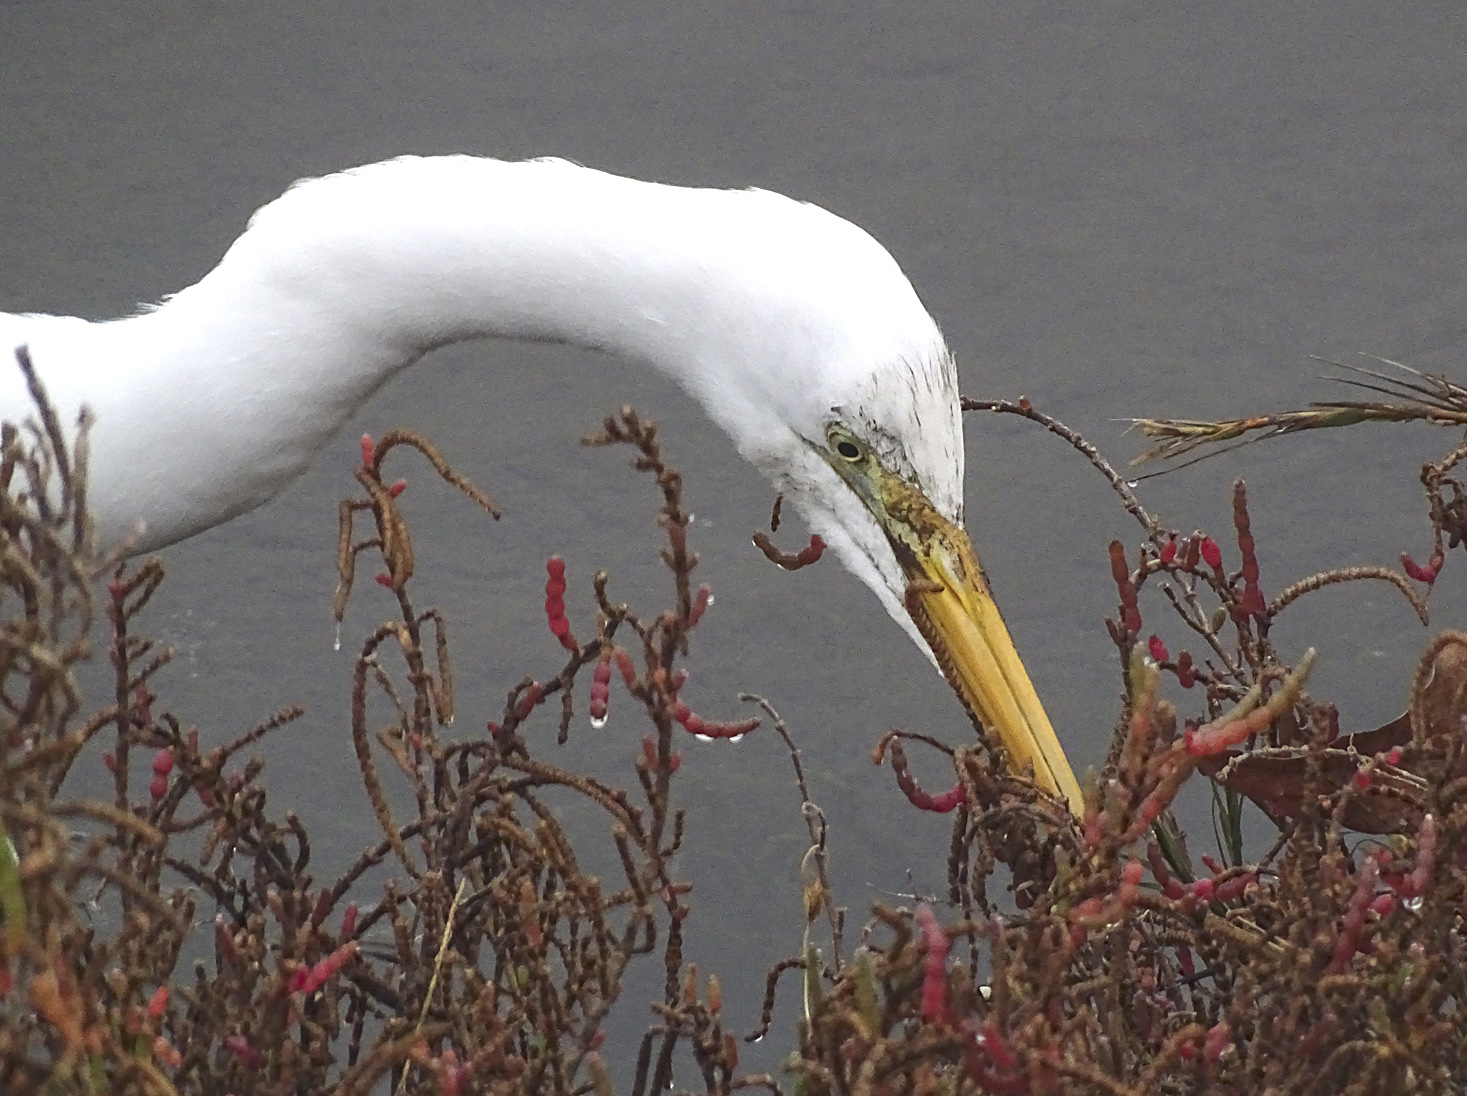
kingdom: Animalia
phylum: Chordata
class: Aves
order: Pelecaniformes
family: Ardeidae
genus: Ardea
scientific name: Ardea alba
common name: Great egret
